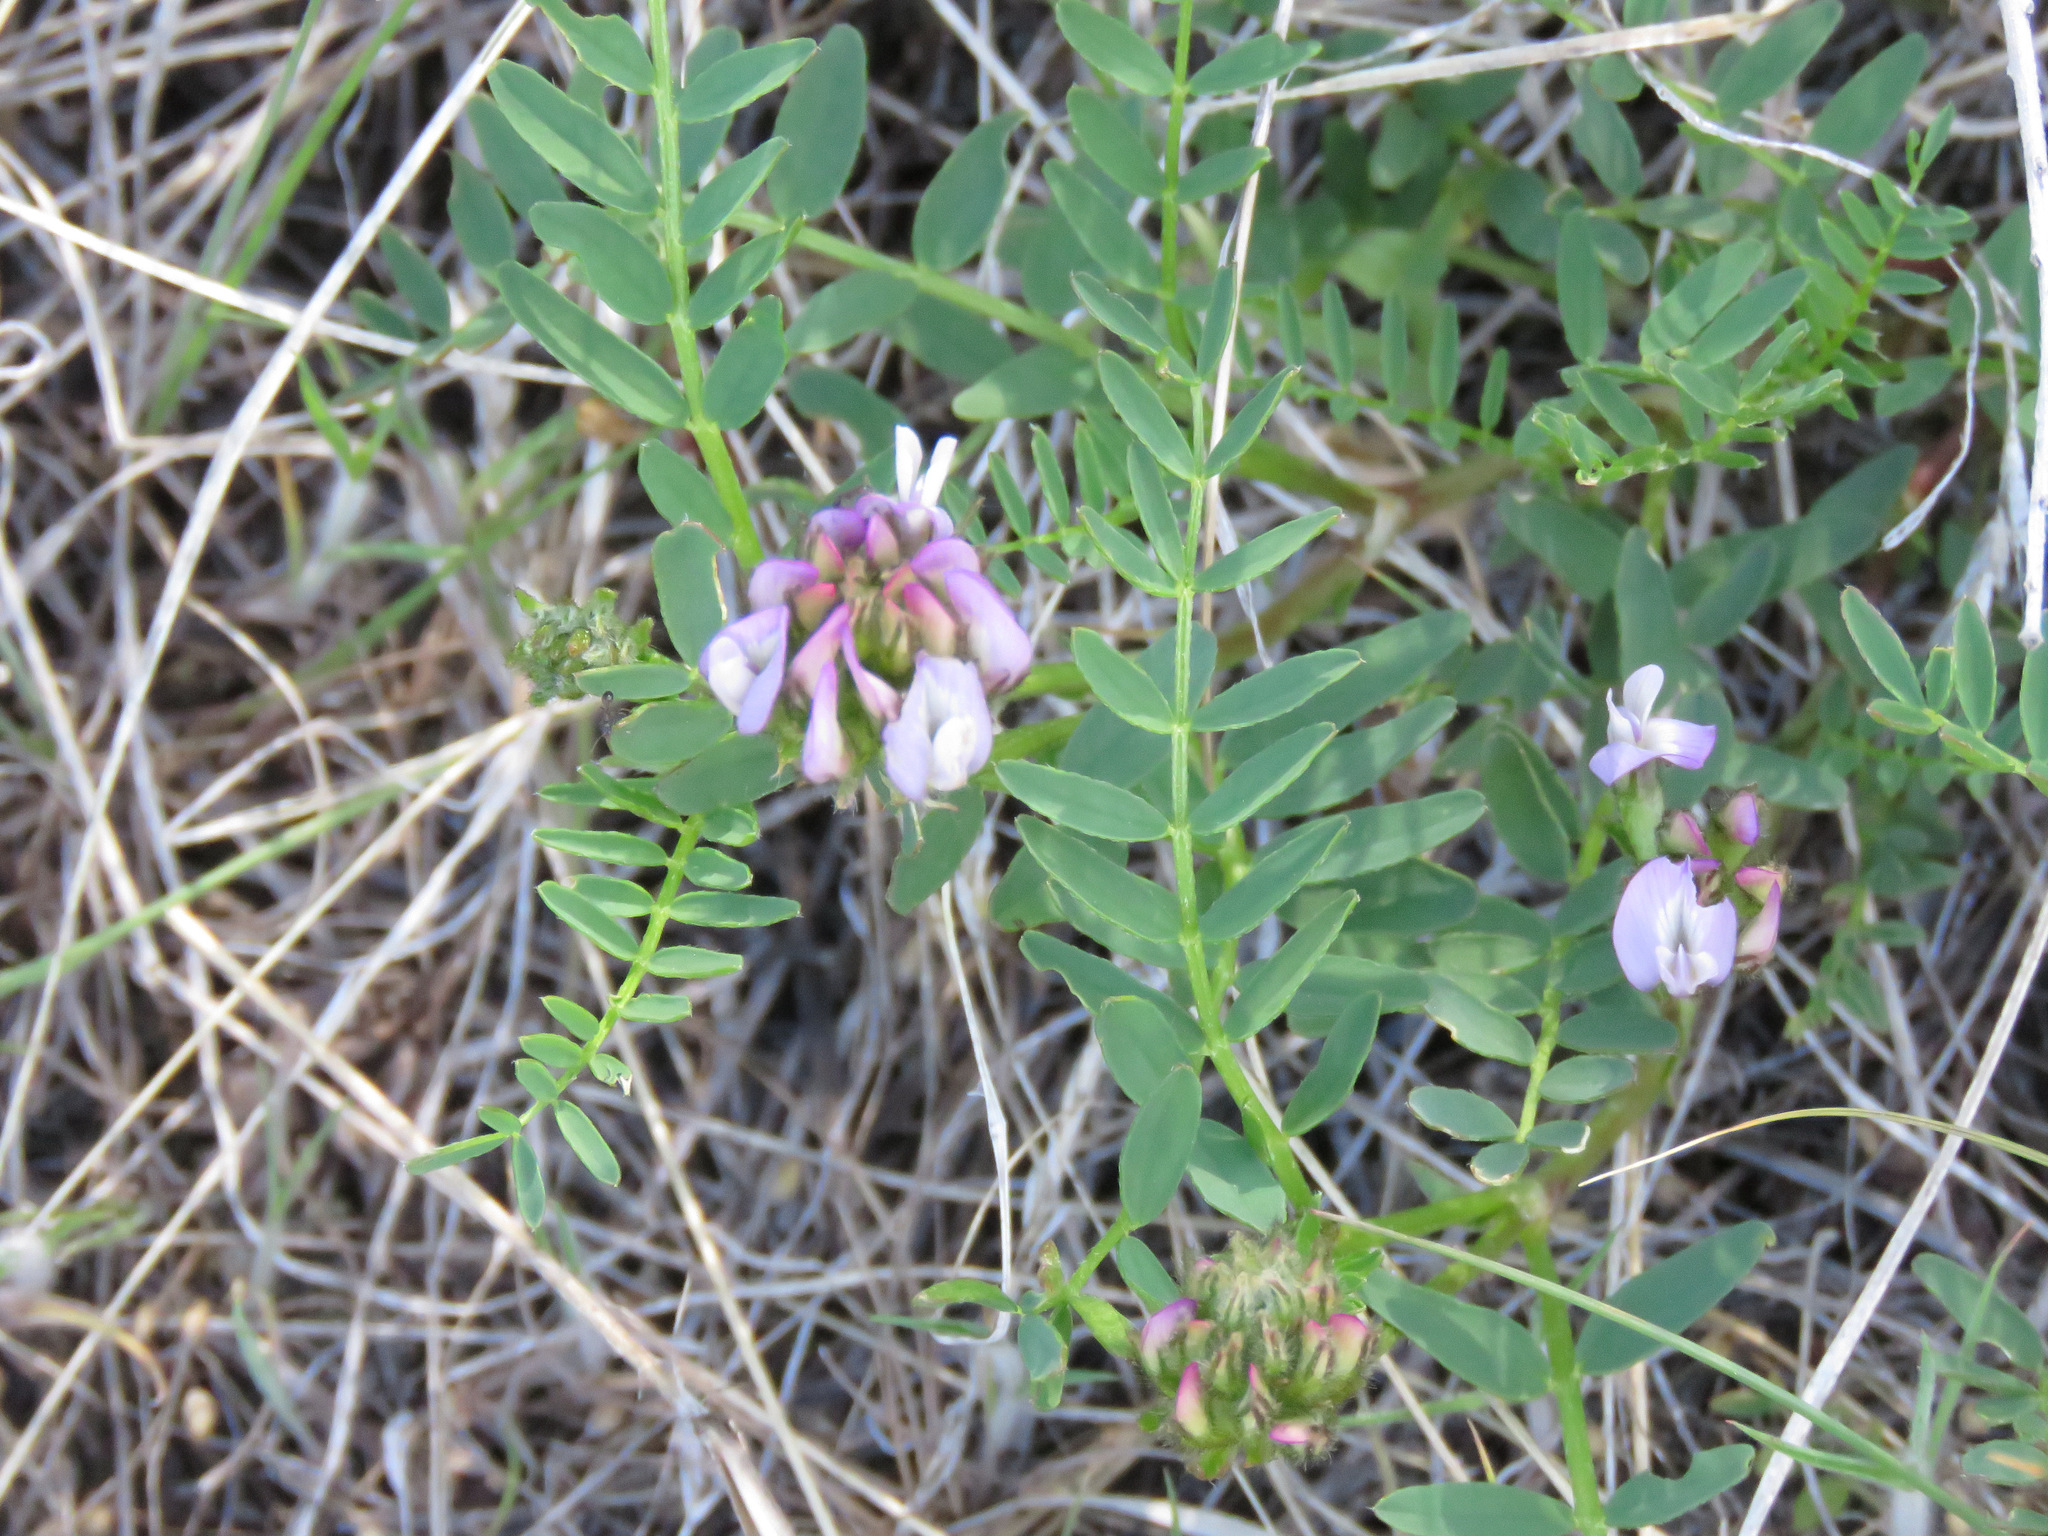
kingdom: Plantae
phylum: Tracheophyta
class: Magnoliopsida
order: Fabales
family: Fabaceae
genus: Astragalus
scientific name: Astragalus agrestis
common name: Field milk-vetch
